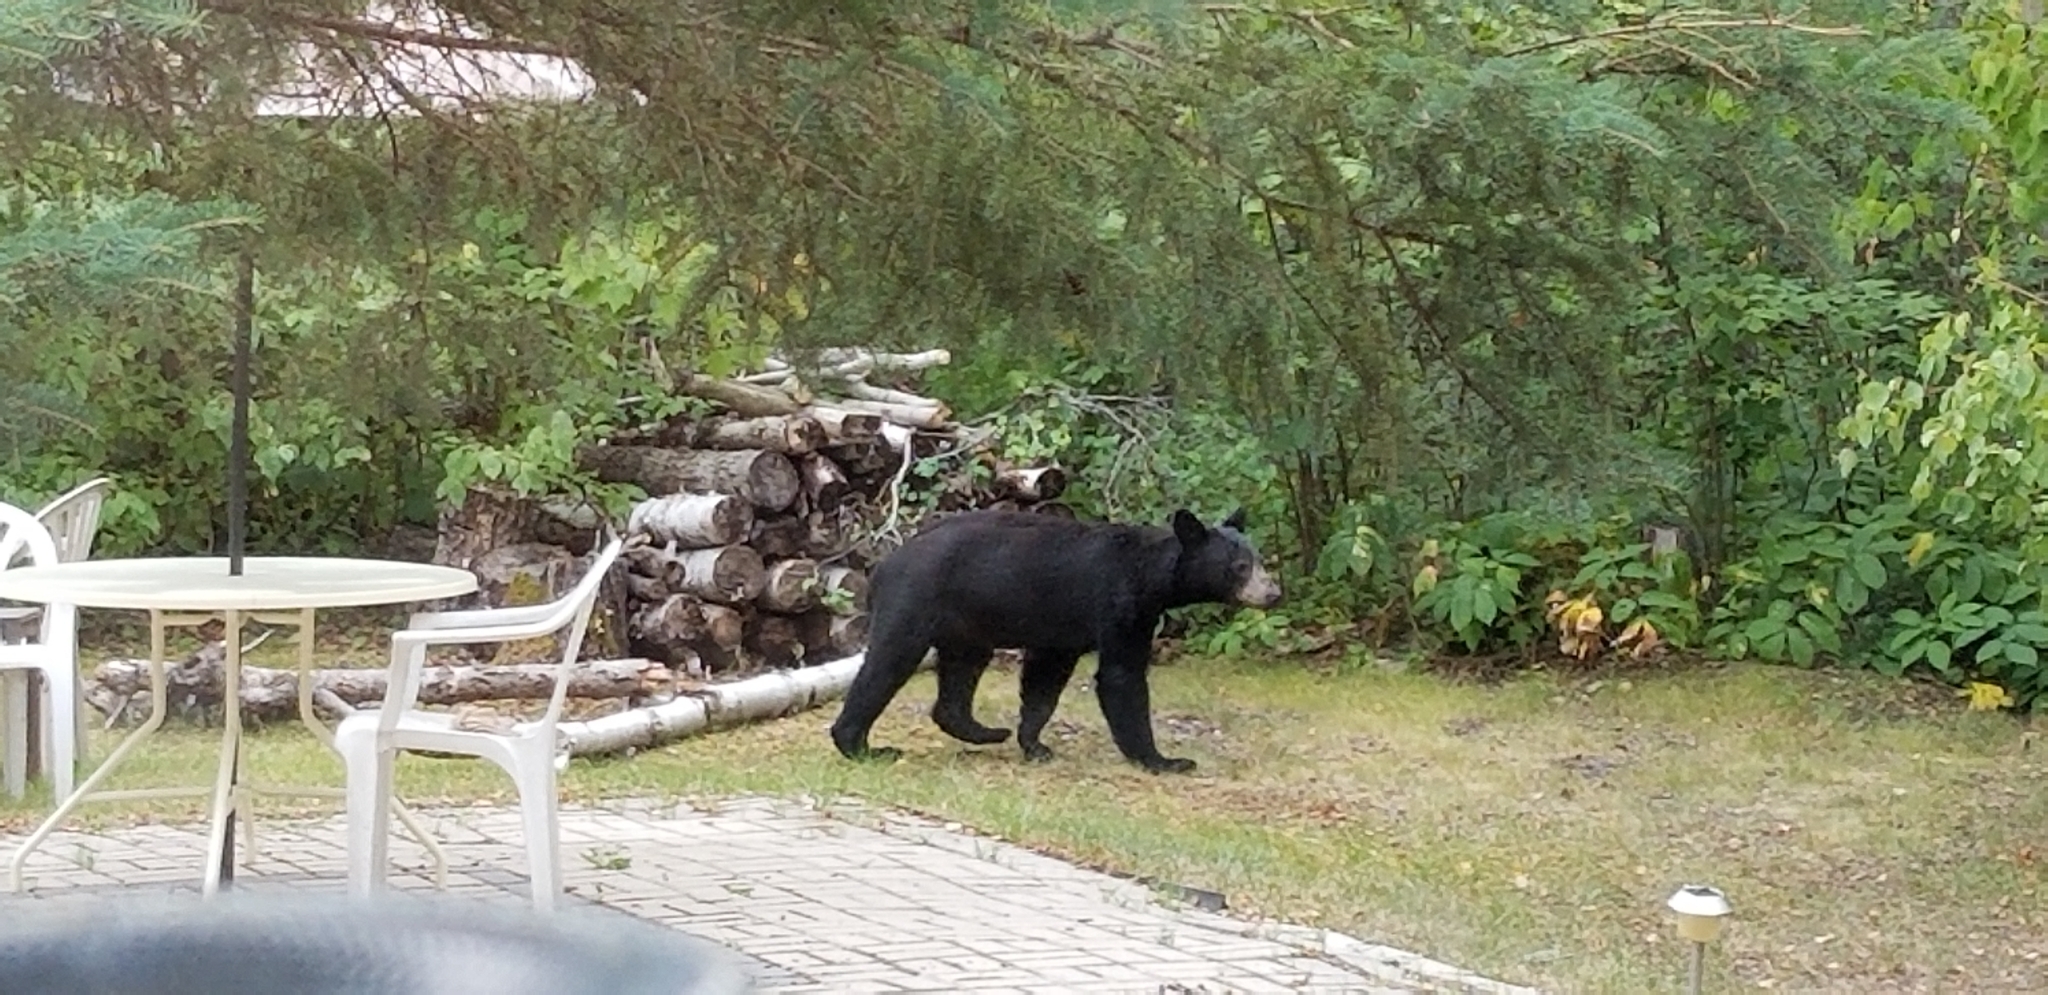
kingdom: Animalia
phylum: Chordata
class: Mammalia
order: Carnivora
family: Ursidae
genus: Ursus
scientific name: Ursus americanus
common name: American black bear
